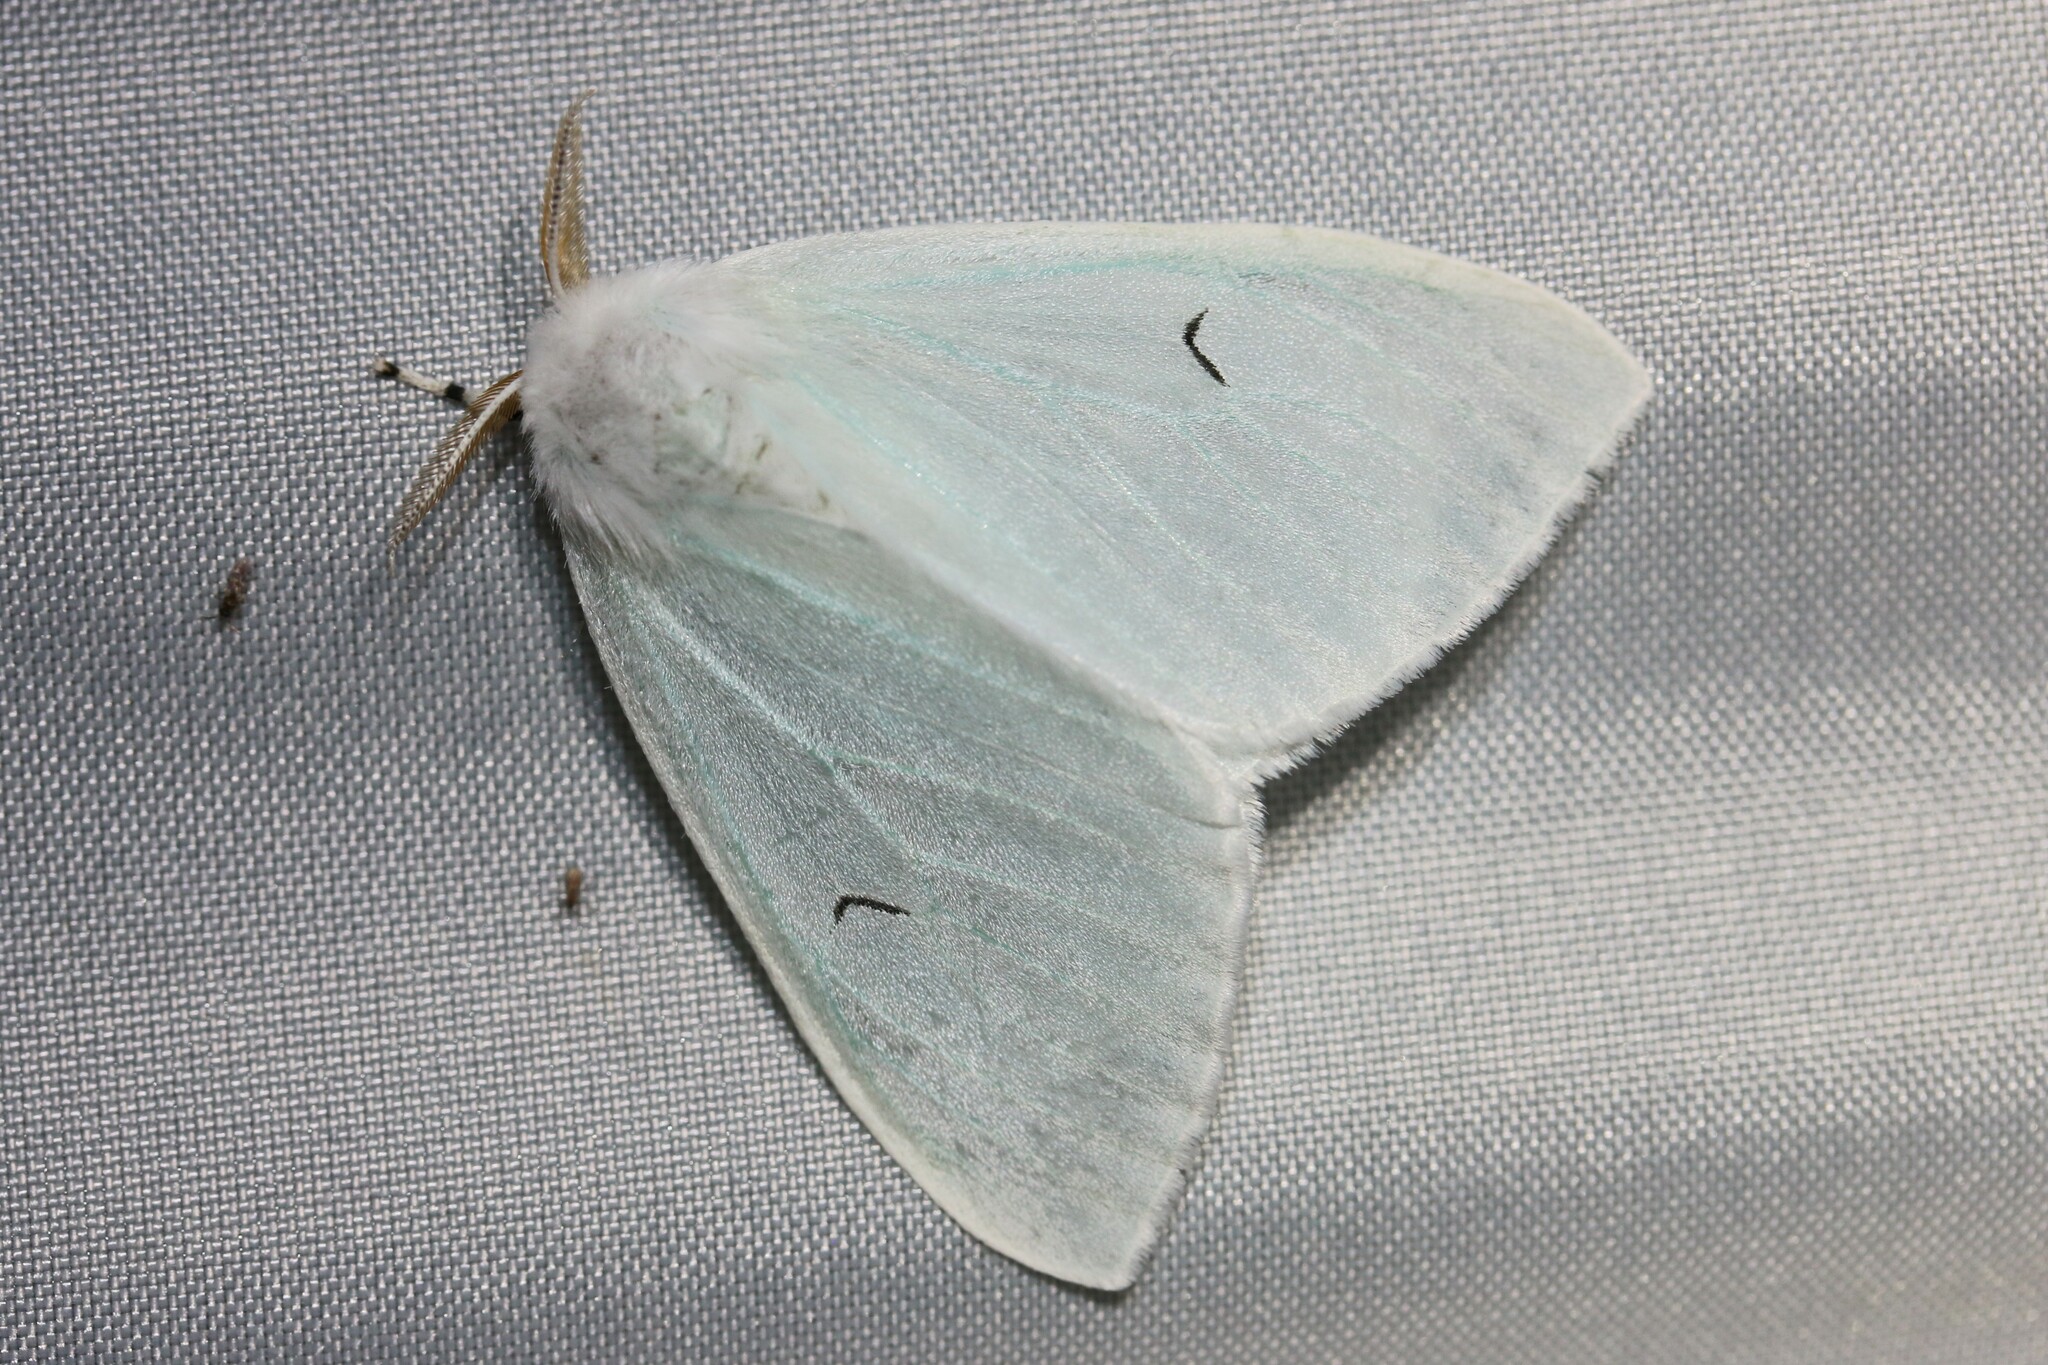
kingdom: Animalia
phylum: Arthropoda
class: Insecta
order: Lepidoptera
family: Erebidae
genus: Arctornis
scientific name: Arctornis l-nigrum
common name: Black v moth
